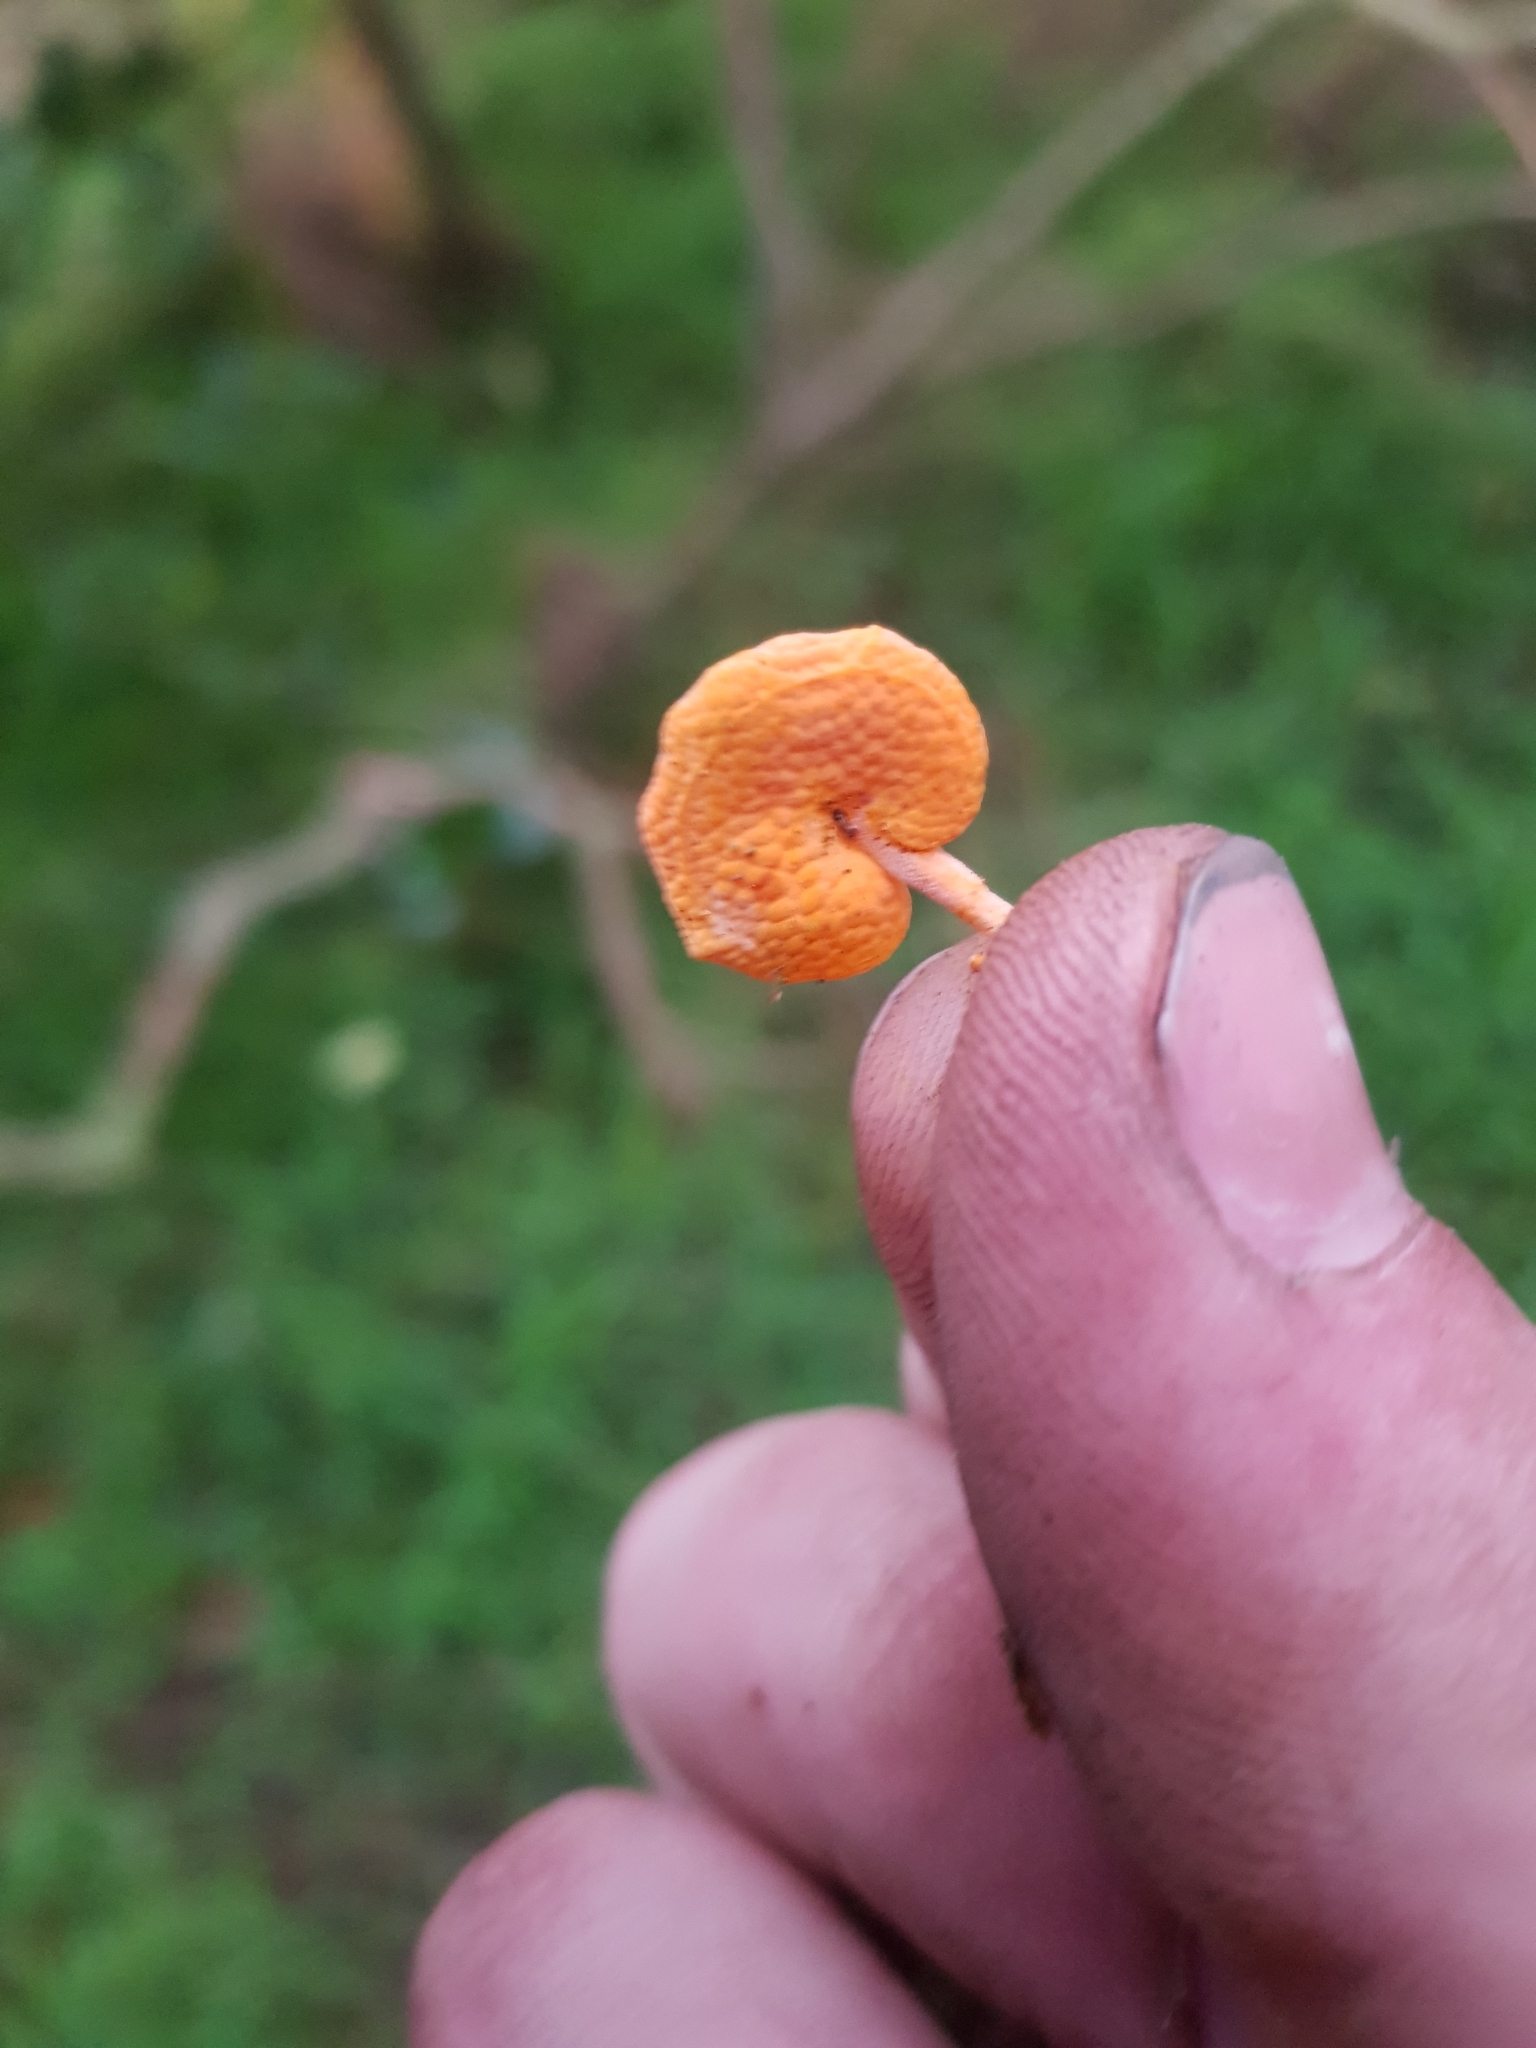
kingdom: Fungi
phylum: Basidiomycota
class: Agaricomycetes
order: Agaricales
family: Mycenaceae
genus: Favolaschia
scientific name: Favolaschia claudopus
